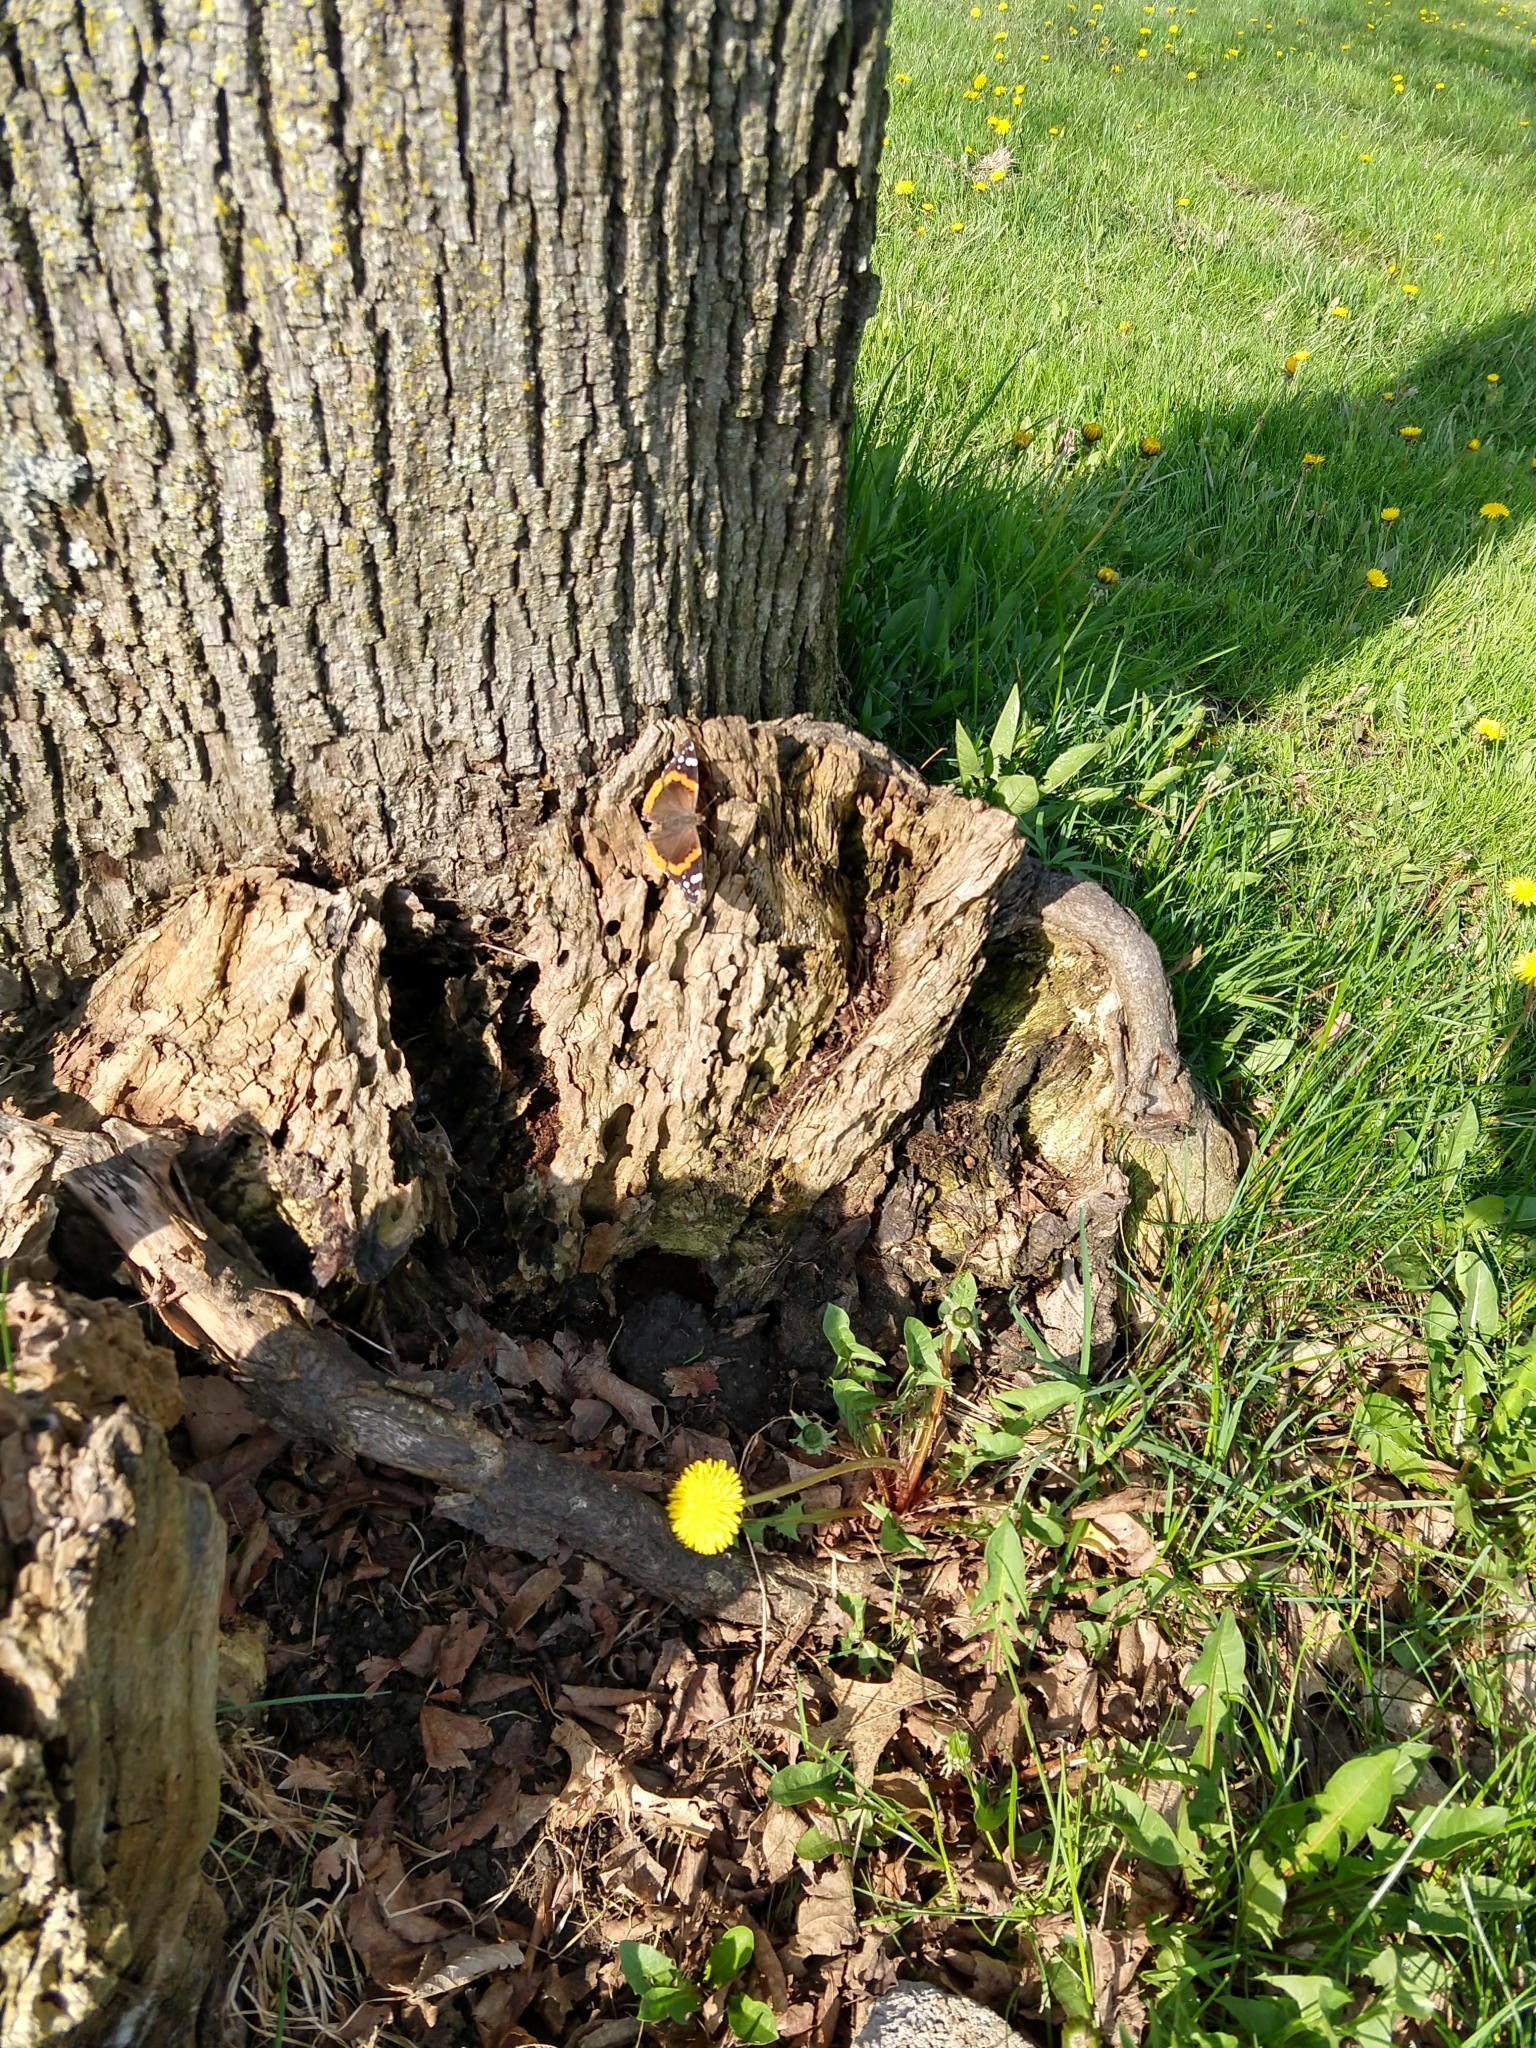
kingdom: Animalia
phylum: Arthropoda
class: Insecta
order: Lepidoptera
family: Nymphalidae
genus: Vanessa
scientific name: Vanessa atalanta
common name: Red admiral
